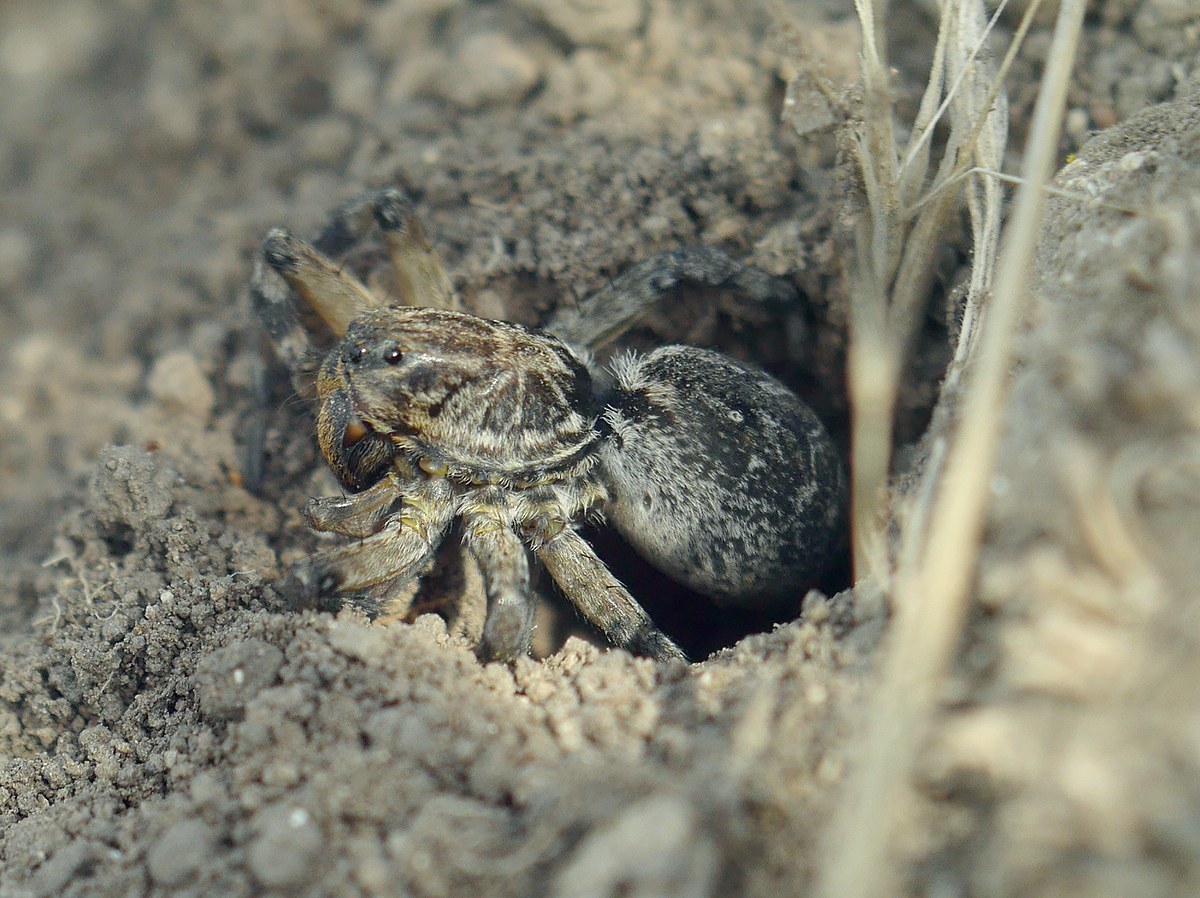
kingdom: Animalia
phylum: Arthropoda
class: Arachnida
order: Araneae
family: Lycosidae
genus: Geolycosa
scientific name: Geolycosa vultuosa
